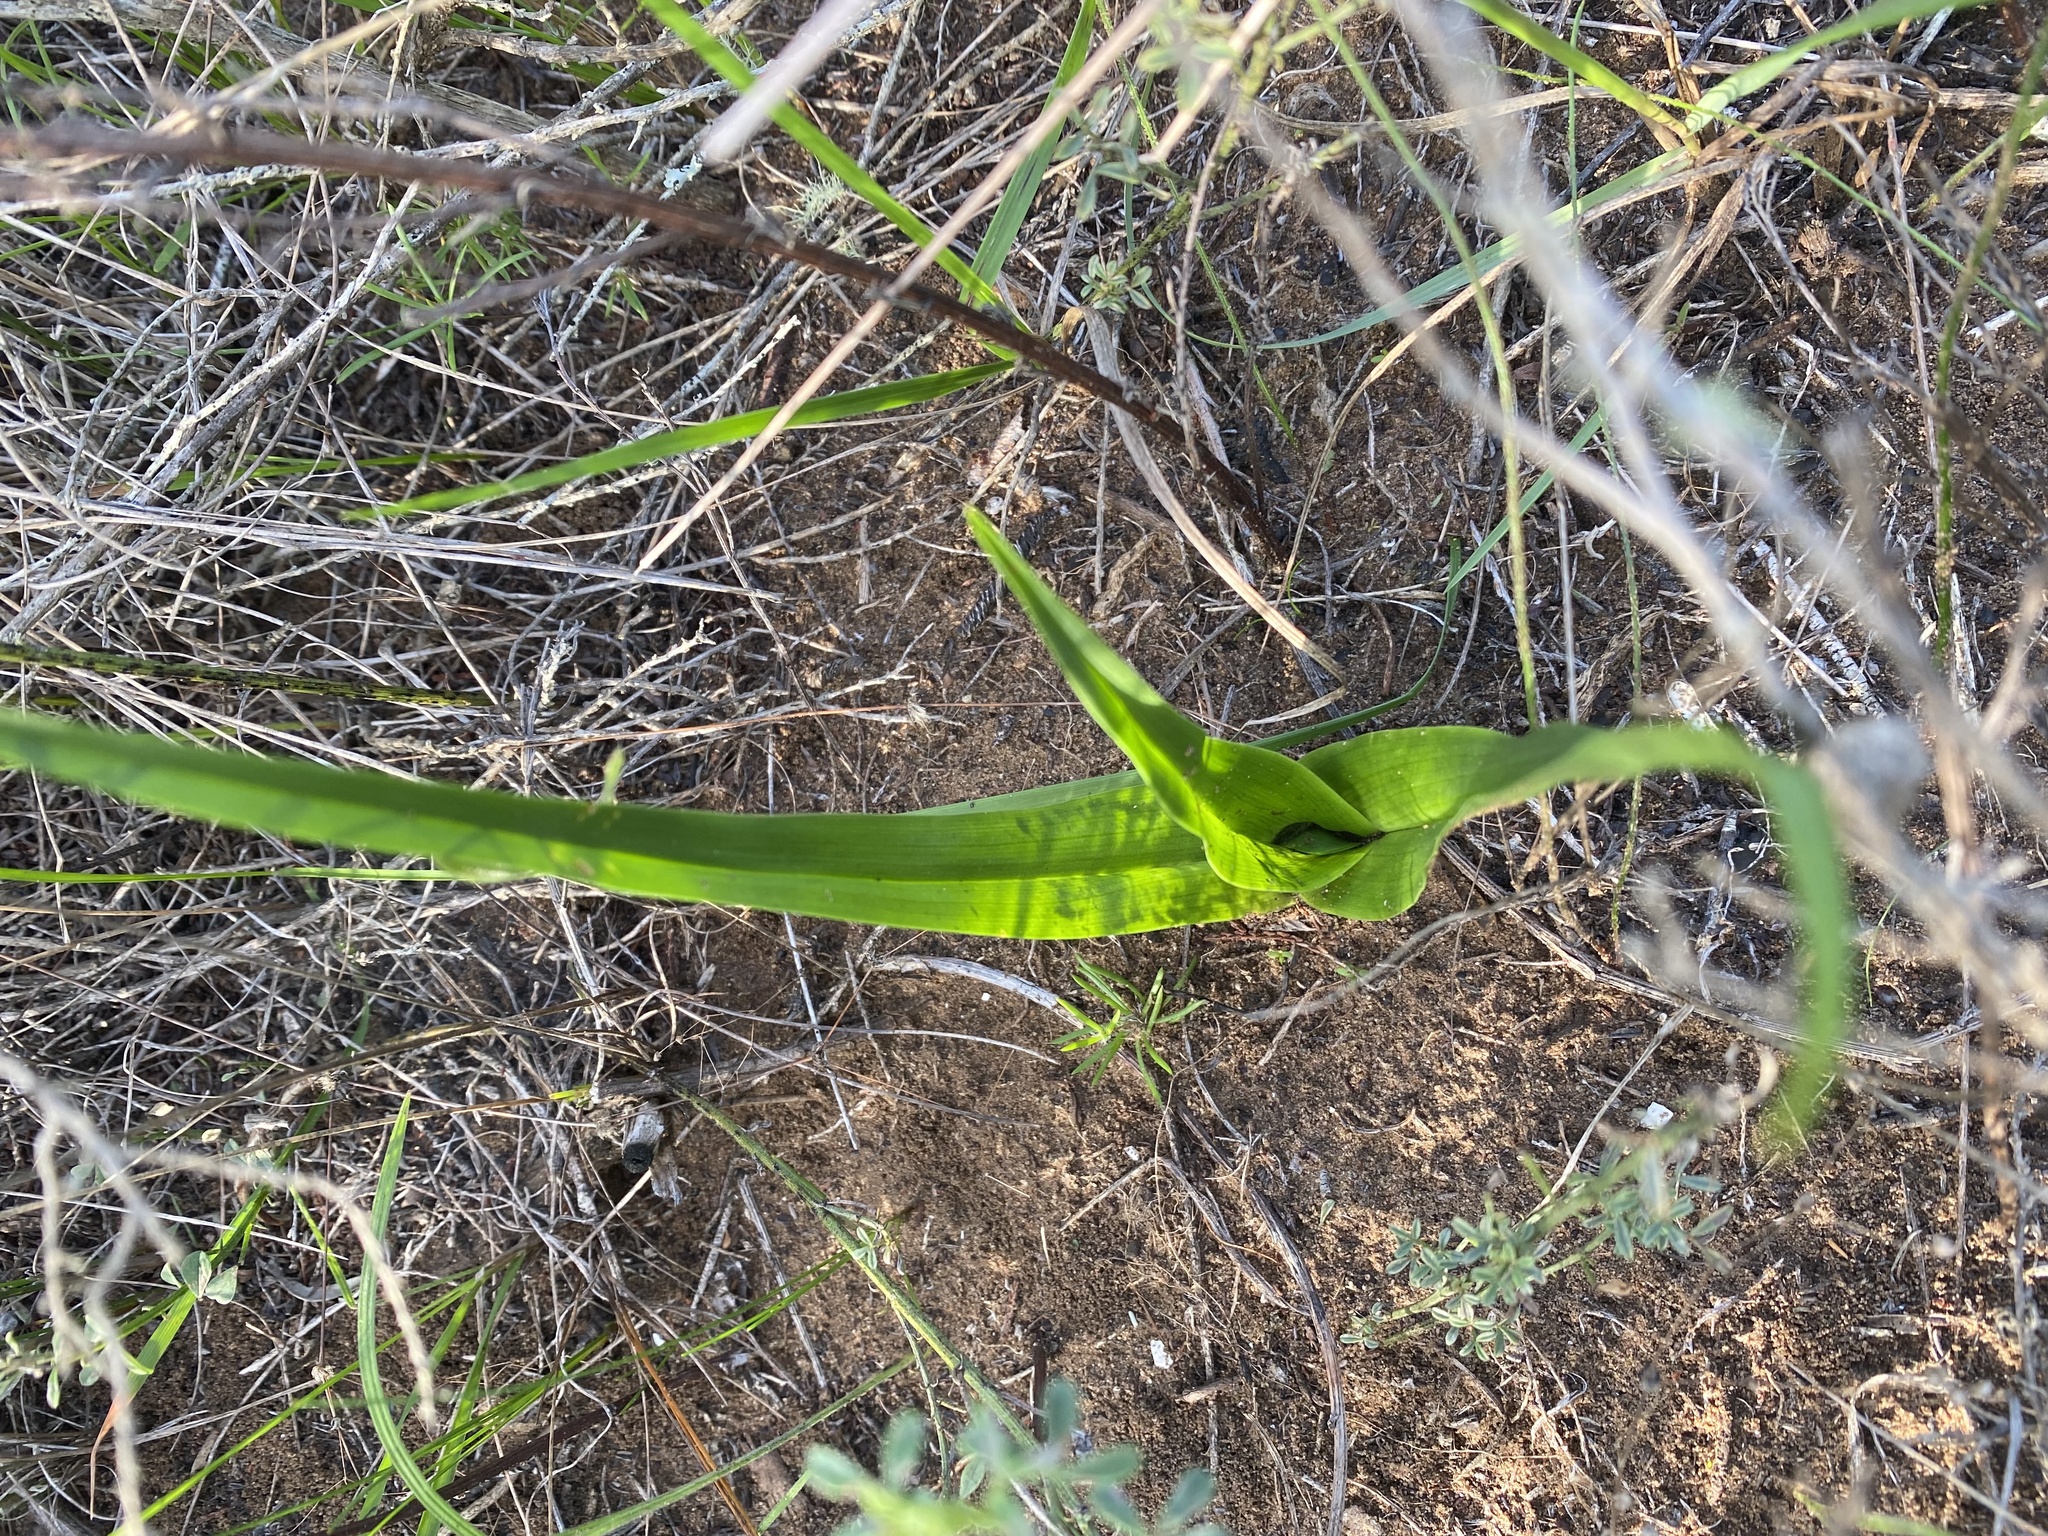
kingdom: Plantae
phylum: Tracheophyta
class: Liliopsida
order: Liliales
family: Colchicaceae
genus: Colchicum
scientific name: Colchicum eucomoides
